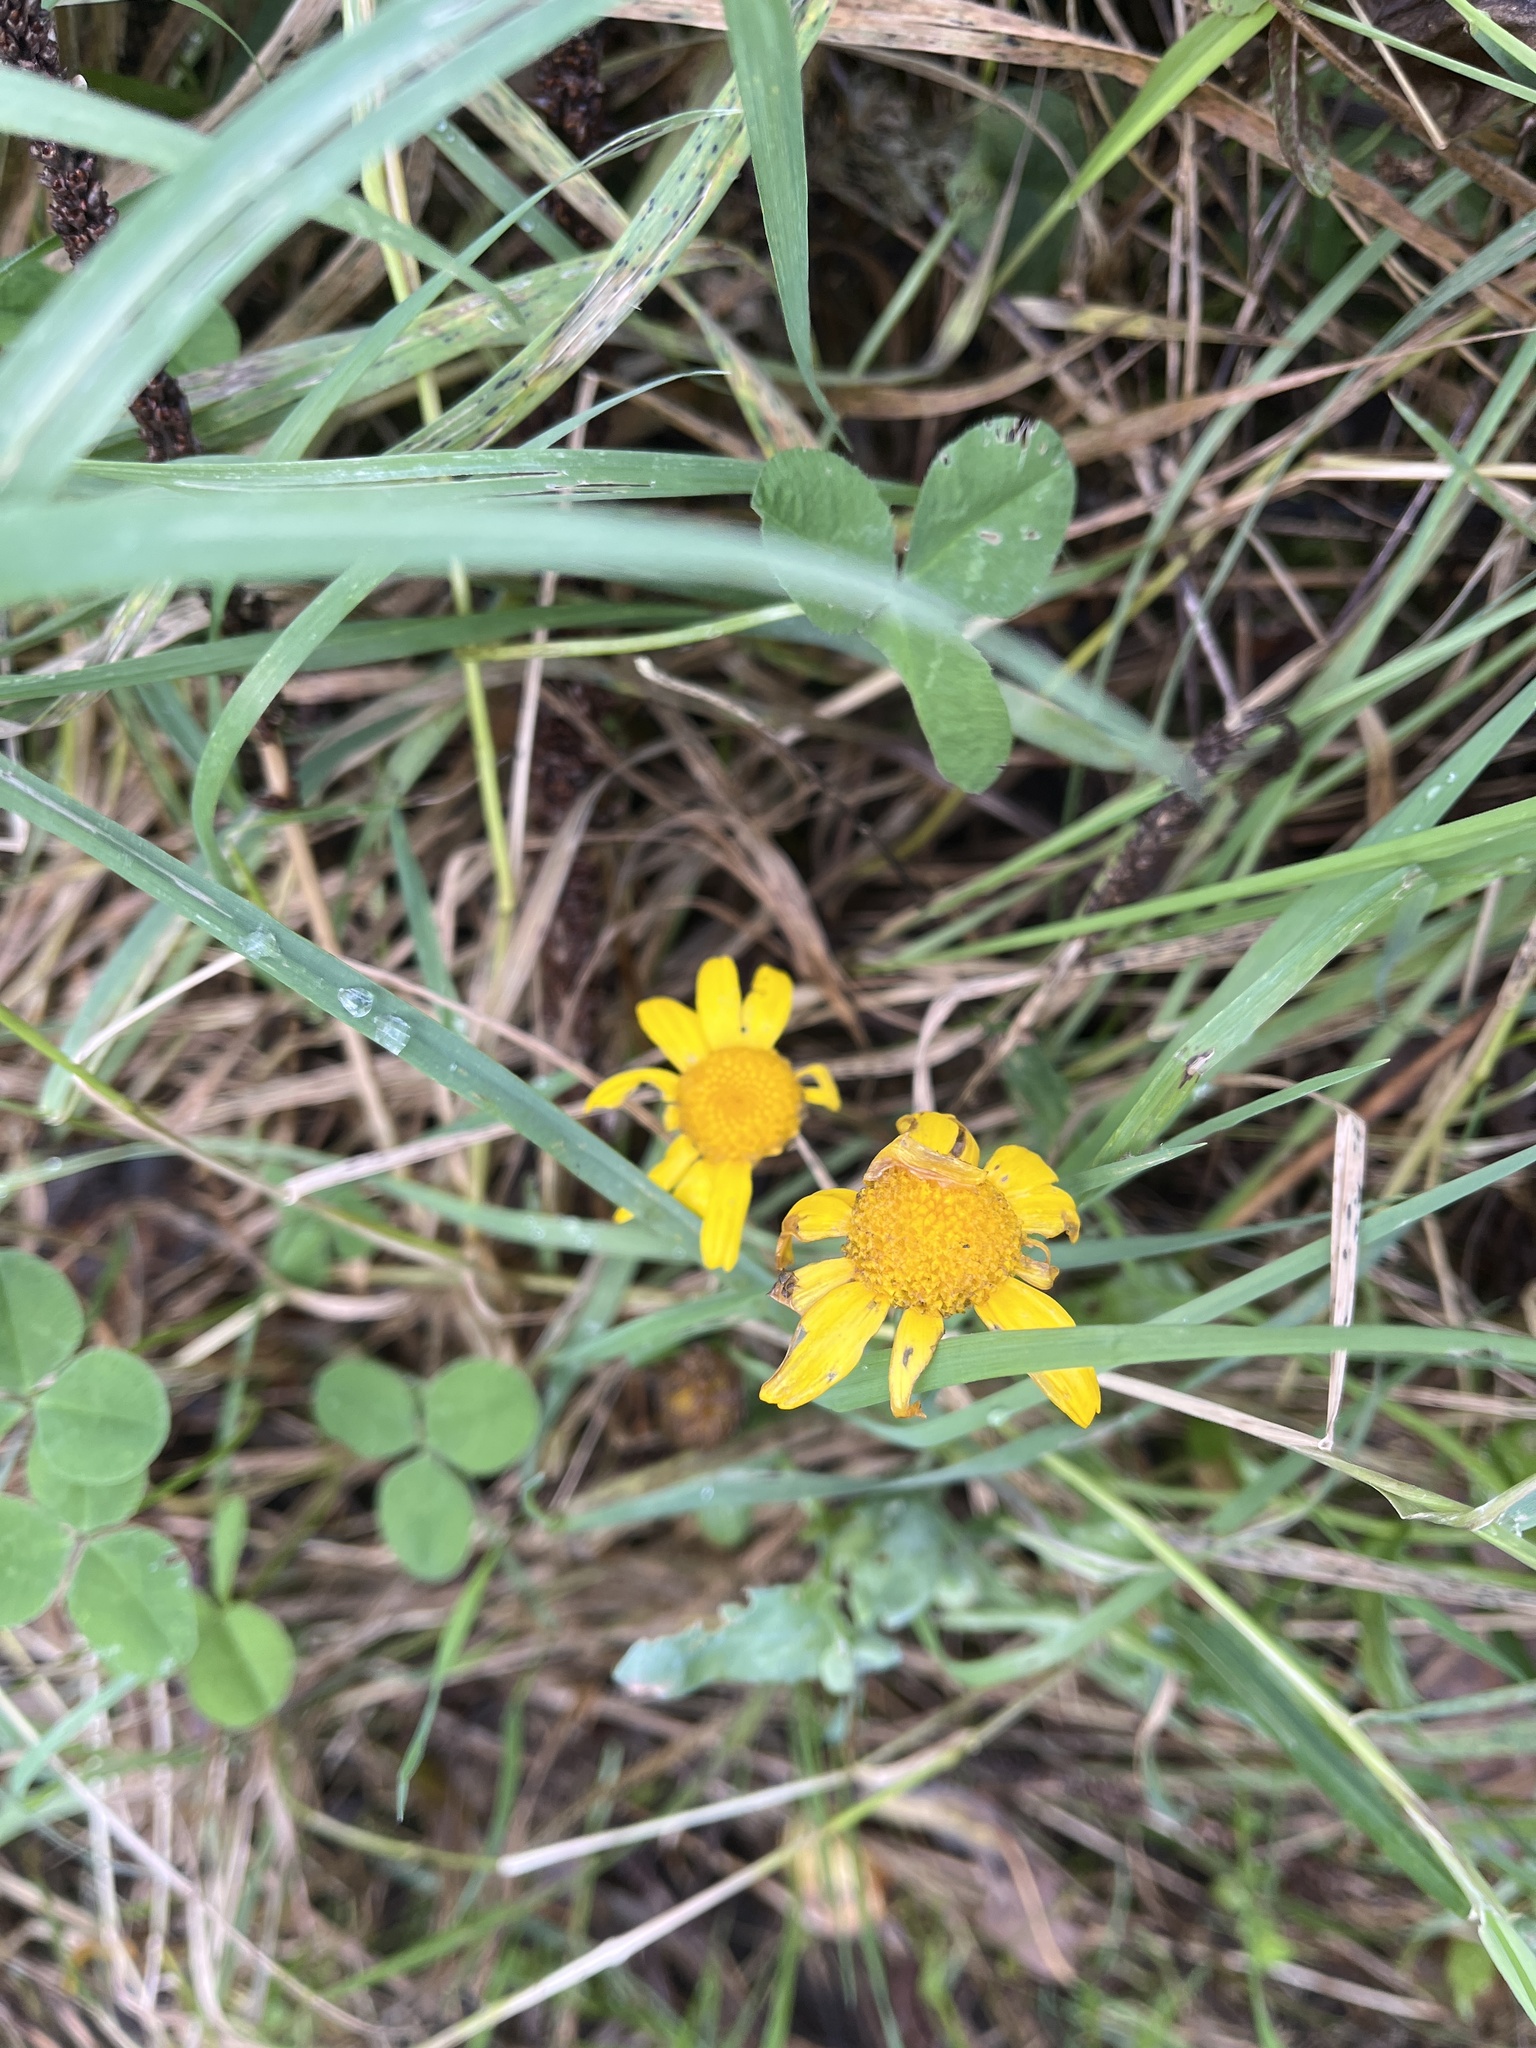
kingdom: Plantae
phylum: Tracheophyta
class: Magnoliopsida
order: Asterales
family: Asteraceae
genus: Glebionis
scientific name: Glebionis segetum
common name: Corndaisy
